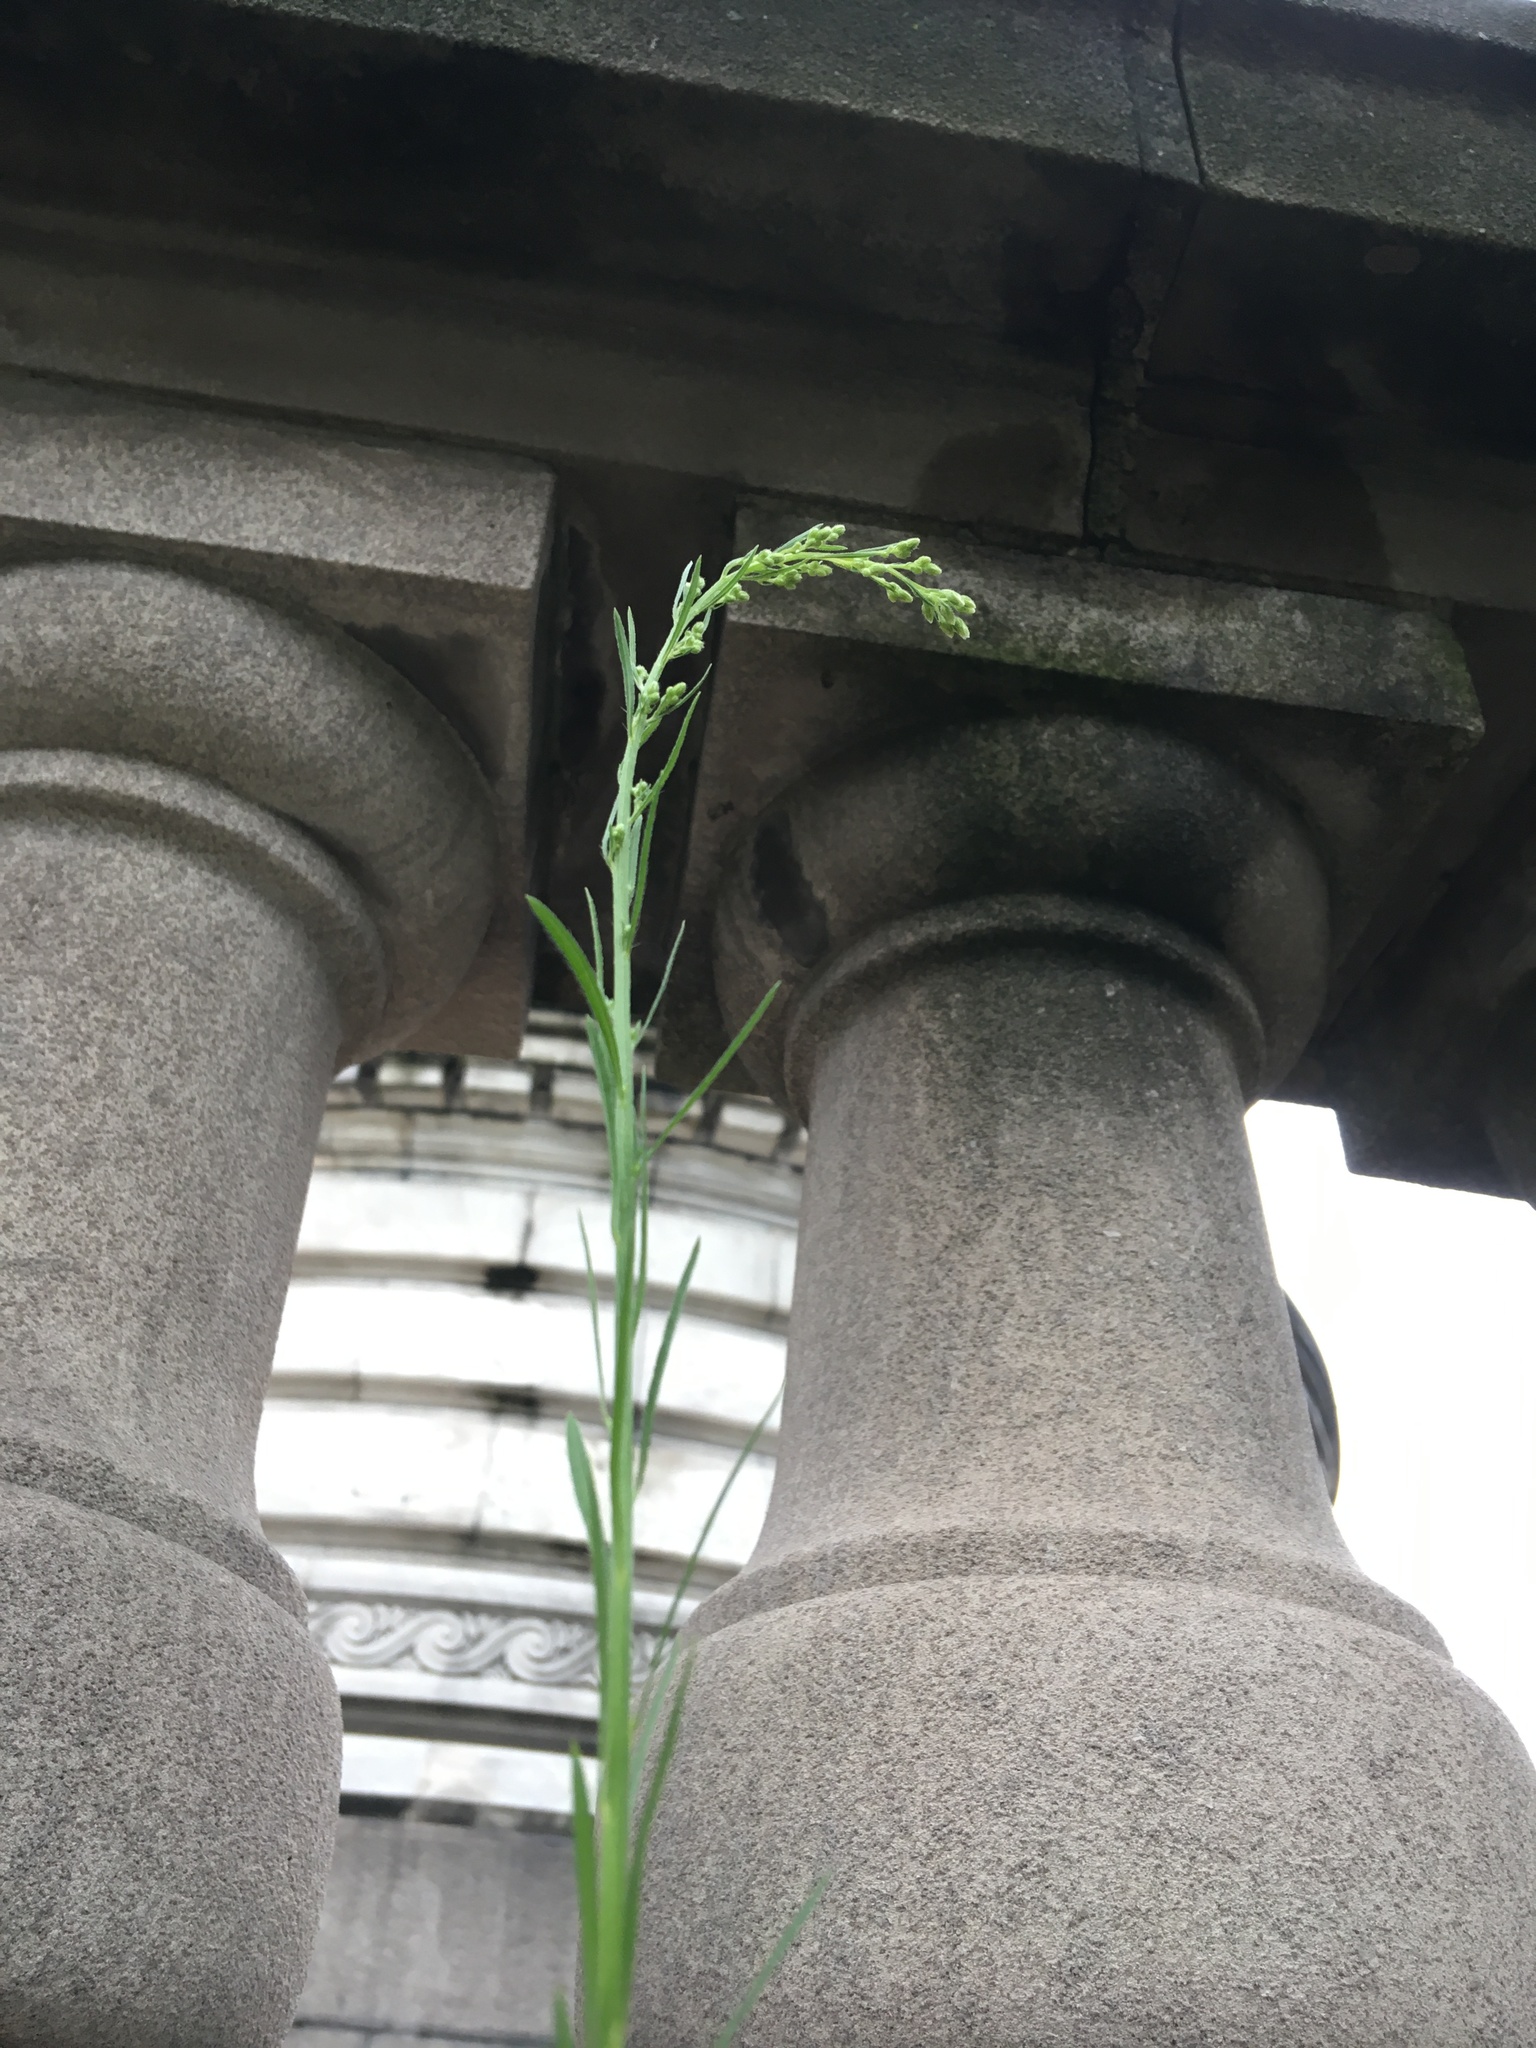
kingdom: Plantae
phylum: Tracheophyta
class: Magnoliopsida
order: Asterales
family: Asteraceae
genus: Erigeron
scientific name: Erigeron canadensis
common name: Canadian fleabane
